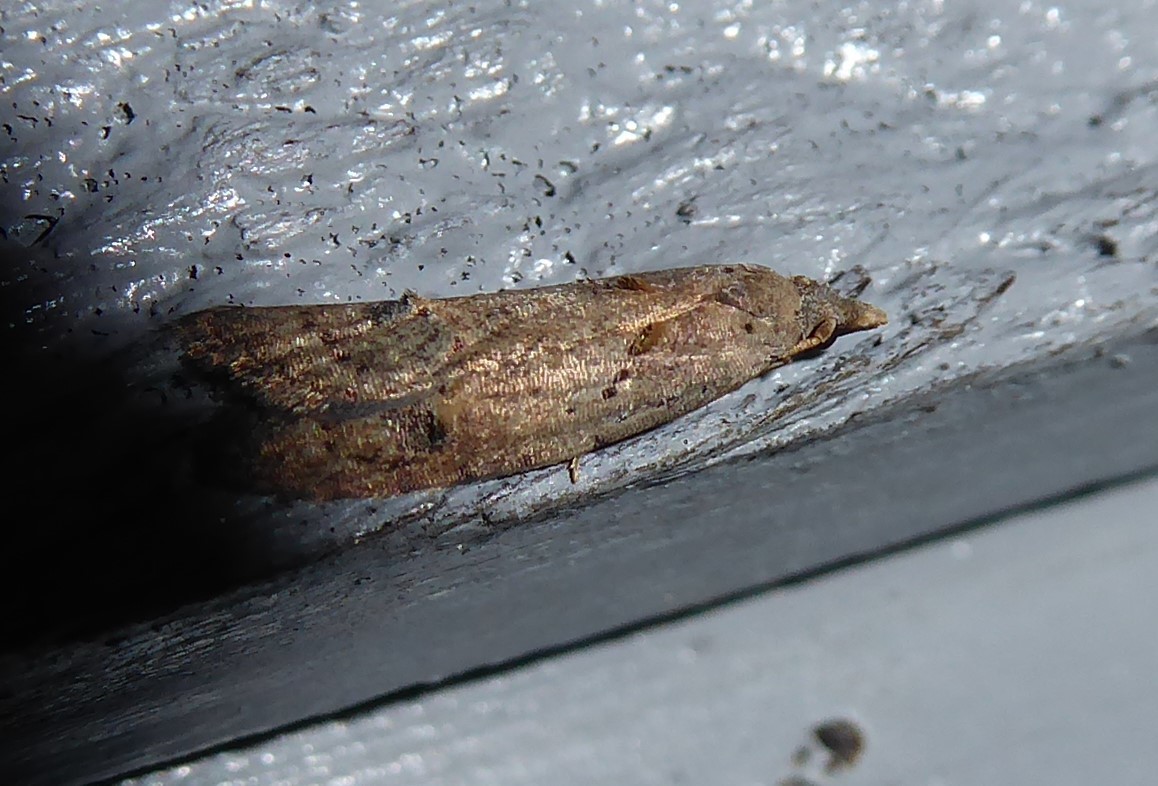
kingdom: Animalia
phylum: Arthropoda
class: Insecta
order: Lepidoptera
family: Carposinidae
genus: Carposina
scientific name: Carposina rubophaga
